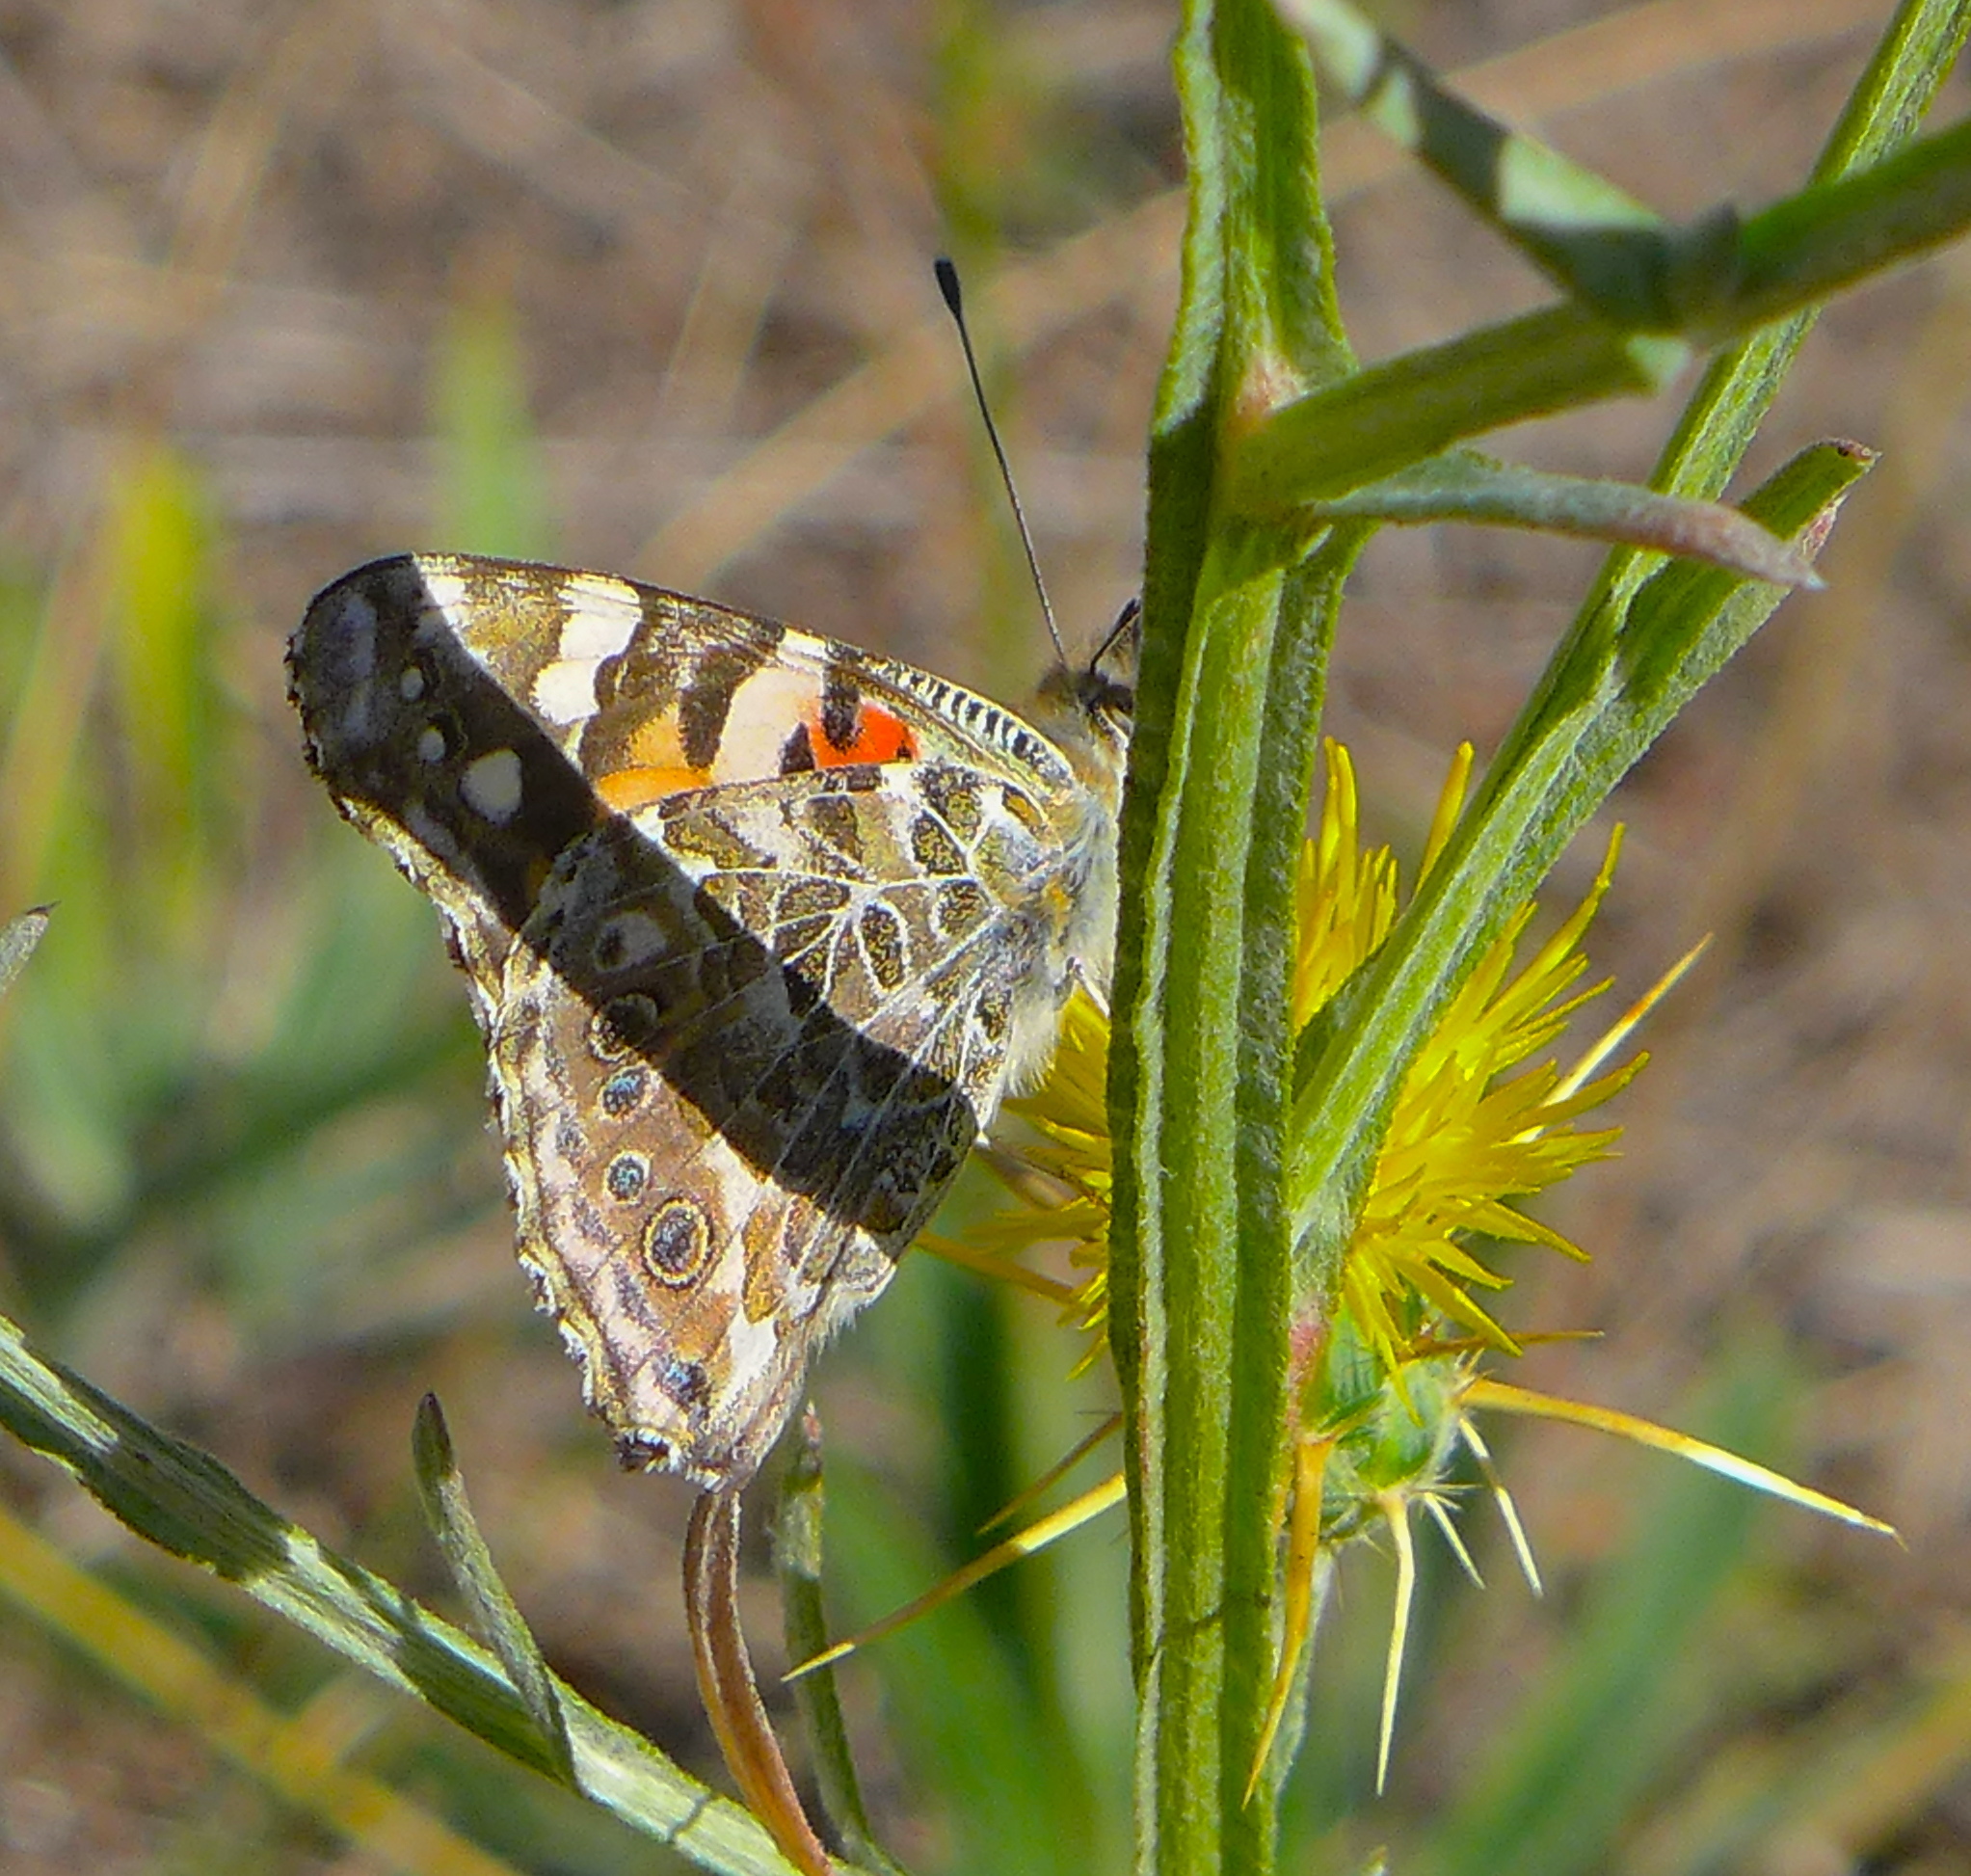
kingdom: Animalia
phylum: Arthropoda
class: Insecta
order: Lepidoptera
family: Nymphalidae
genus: Vanessa
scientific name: Vanessa cardui
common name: Painted lady
